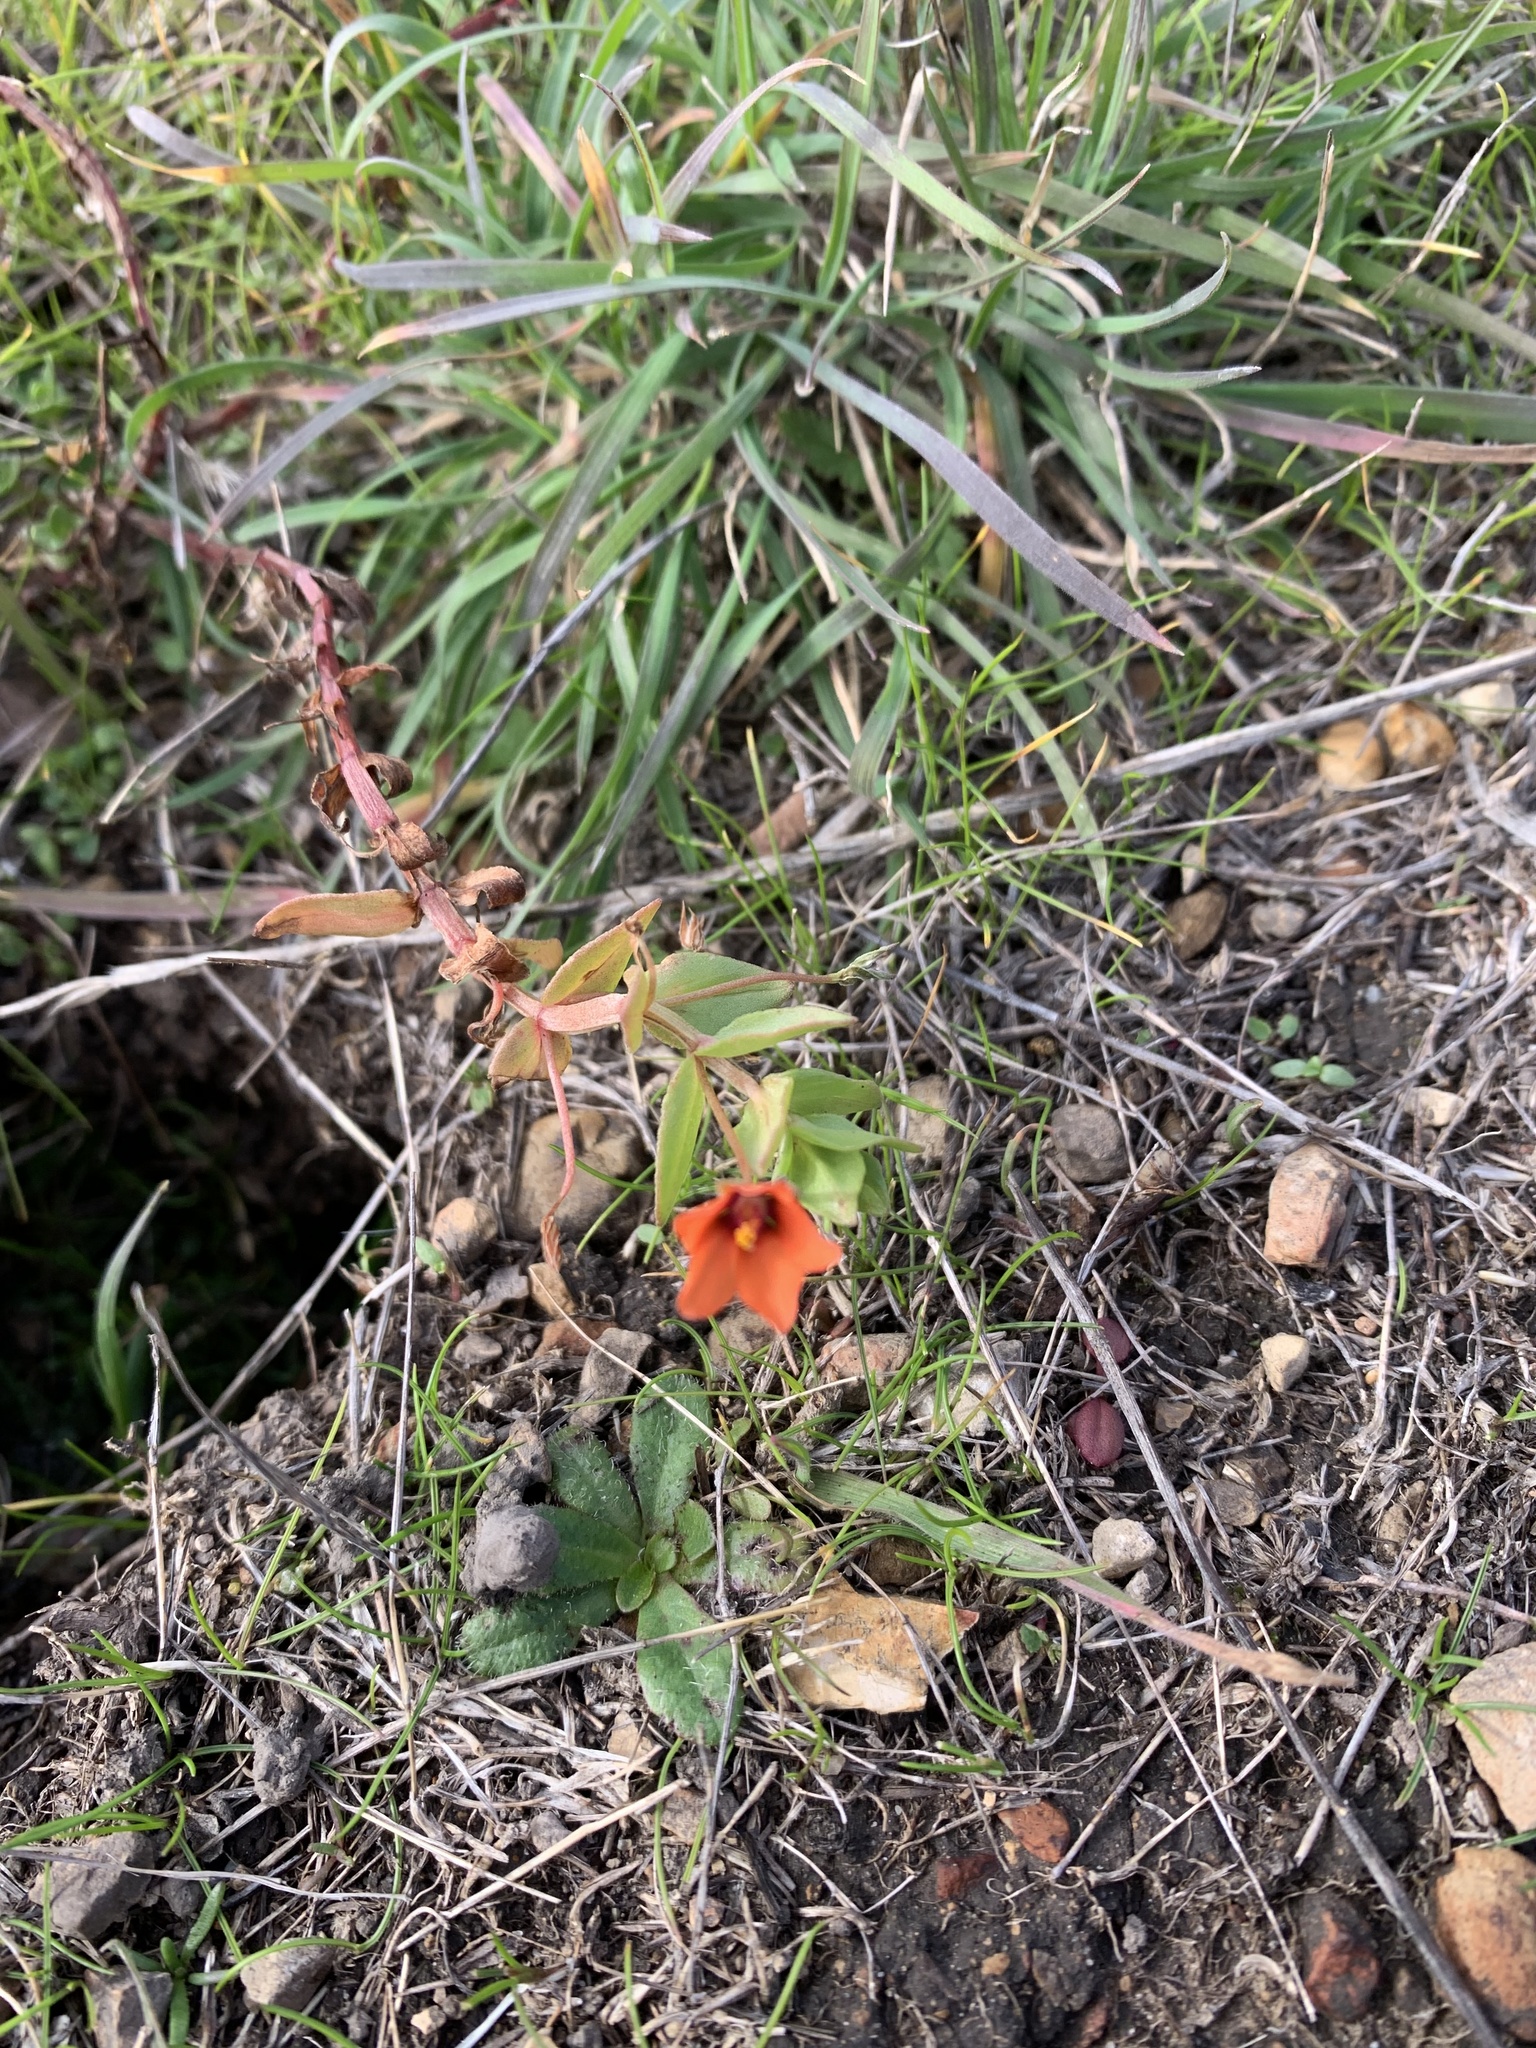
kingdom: Plantae
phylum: Tracheophyta
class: Magnoliopsida
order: Ericales
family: Primulaceae
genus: Lysimachia
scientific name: Lysimachia arvensis
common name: Scarlet pimpernel
